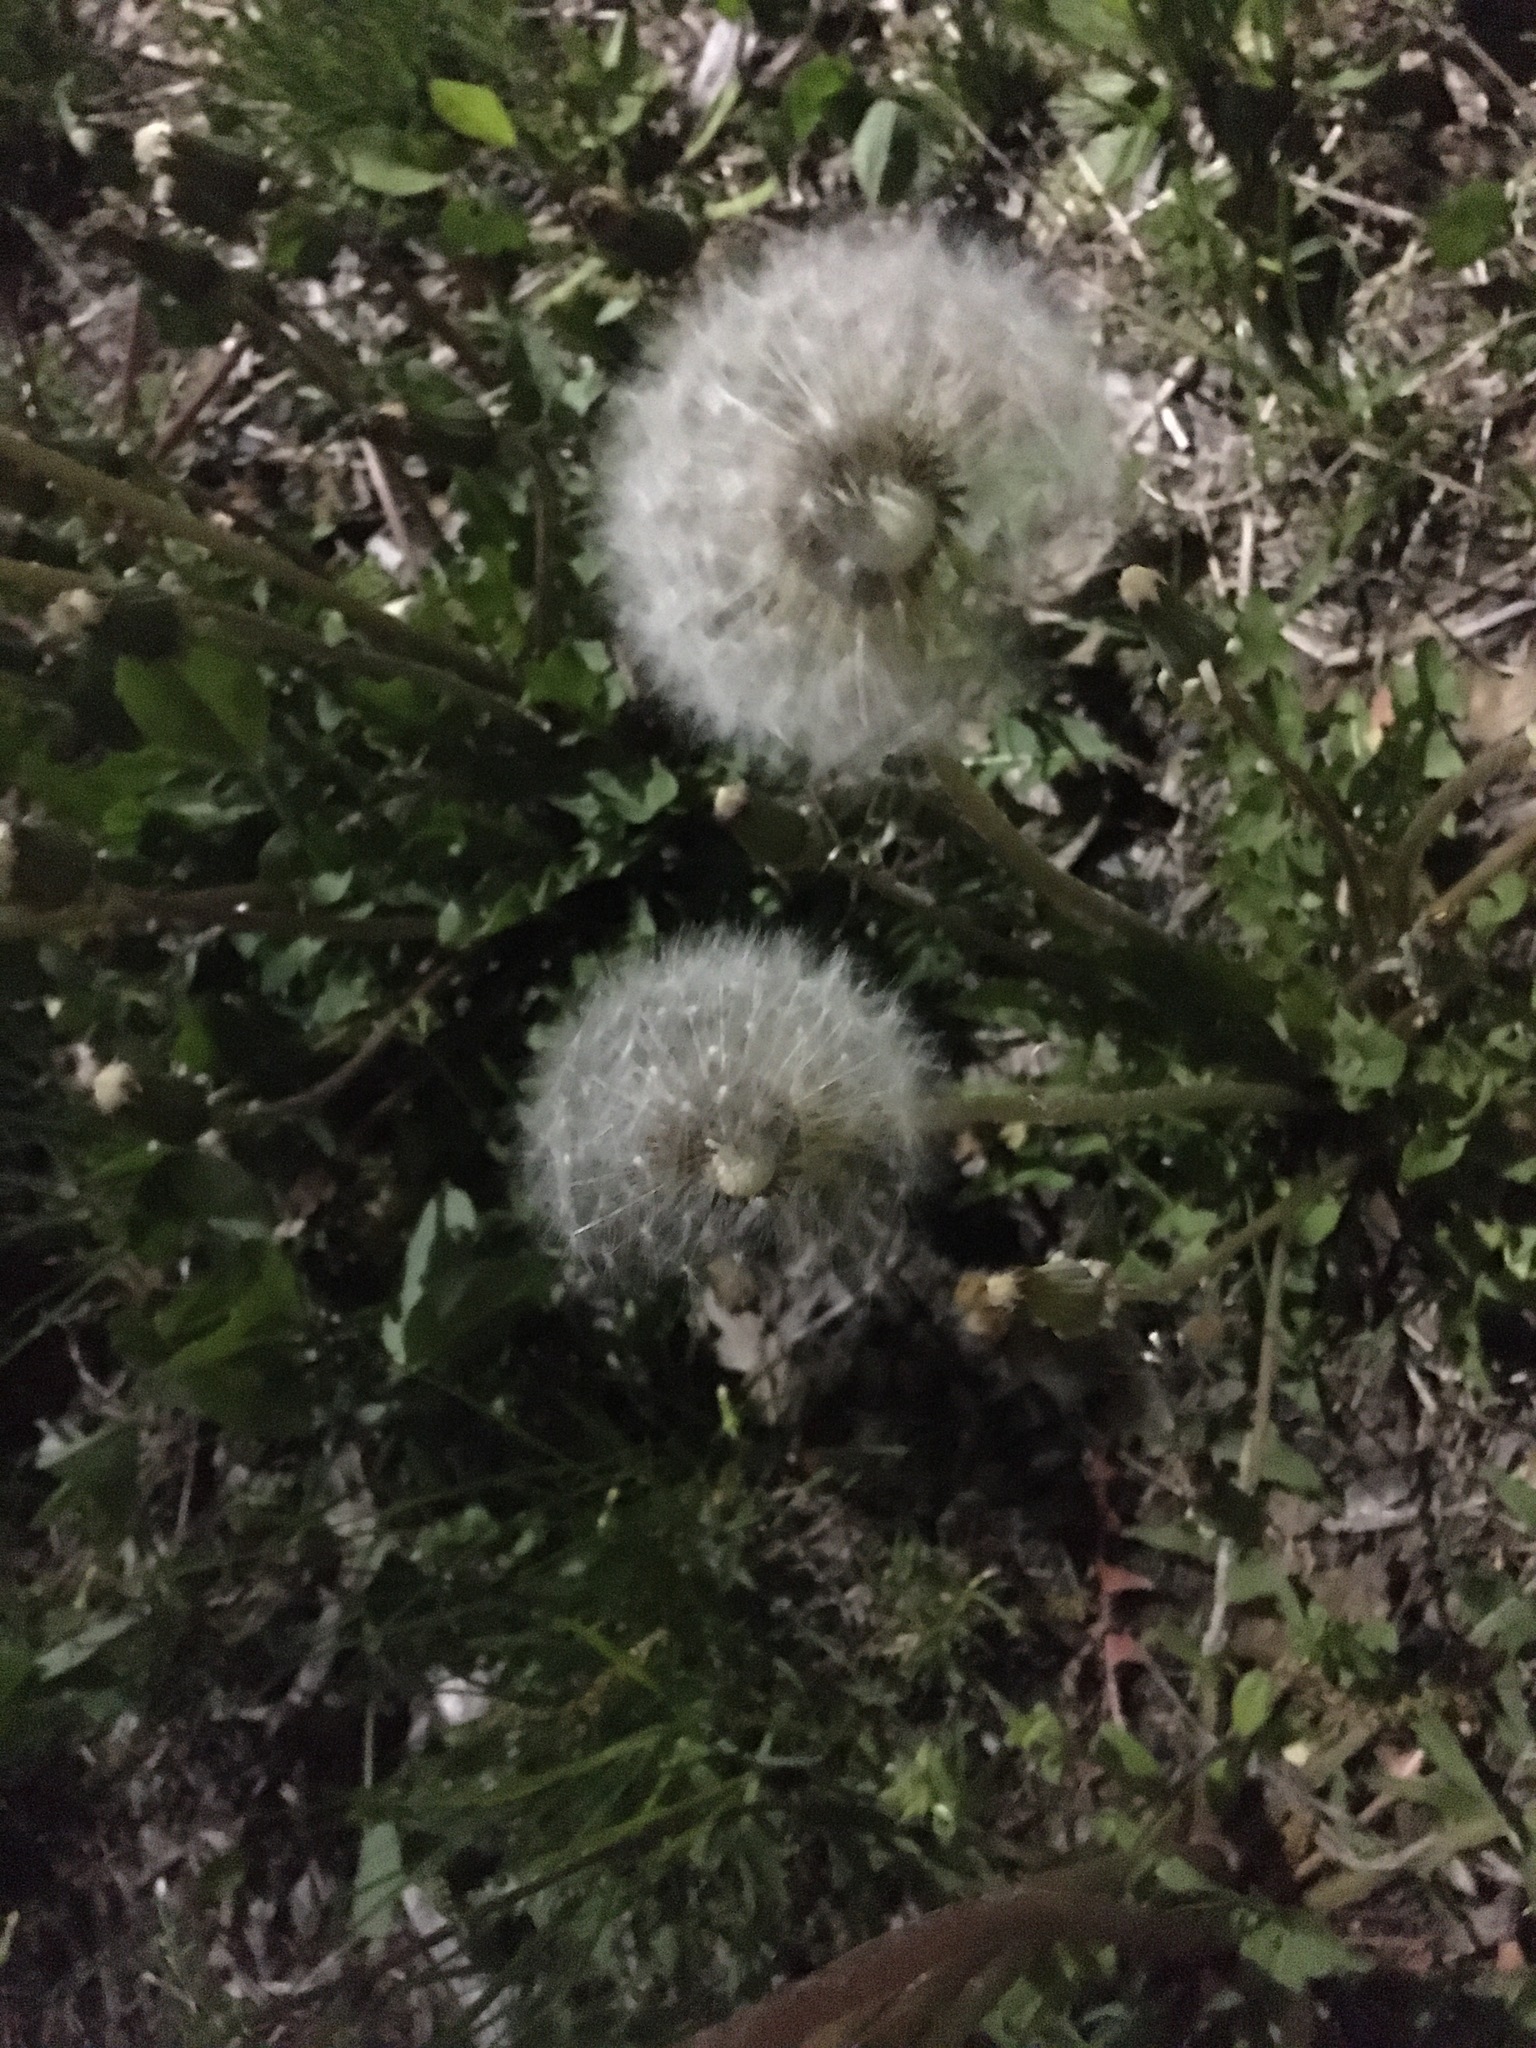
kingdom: Plantae
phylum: Tracheophyta
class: Magnoliopsida
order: Asterales
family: Asteraceae
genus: Taraxacum
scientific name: Taraxacum officinale
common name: Common dandelion
